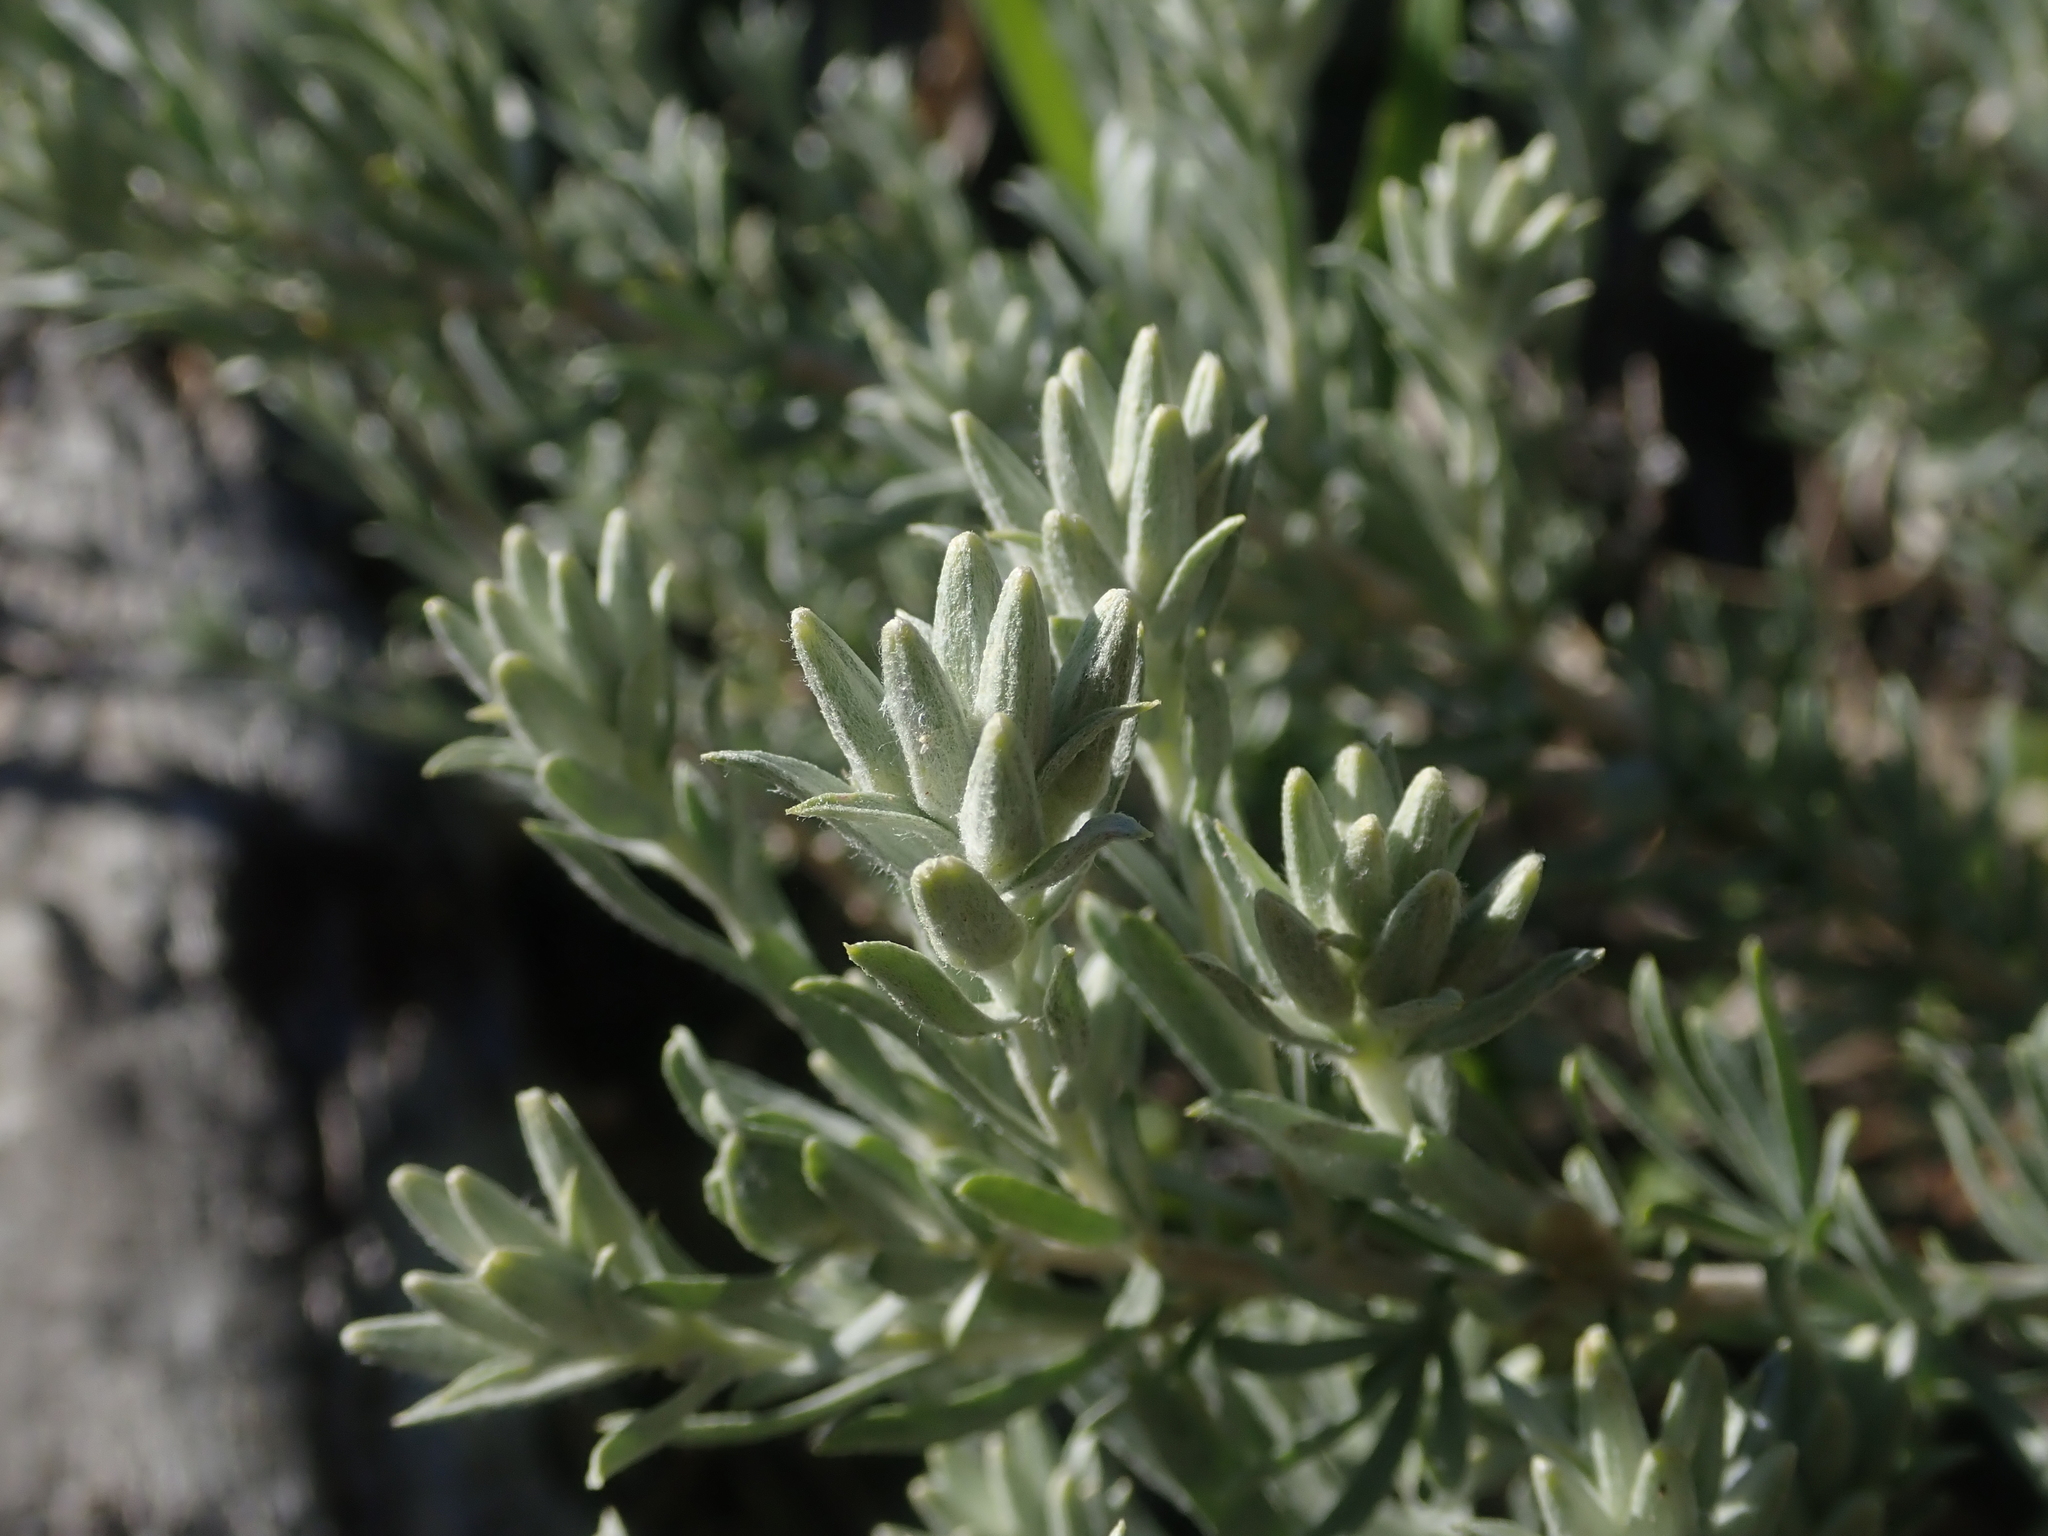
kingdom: Plantae
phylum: Tracheophyta
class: Magnoliopsida
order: Asterales
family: Asteraceae
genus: Tetradymia
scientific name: Tetradymia canescens
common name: Spineless horsebrush
